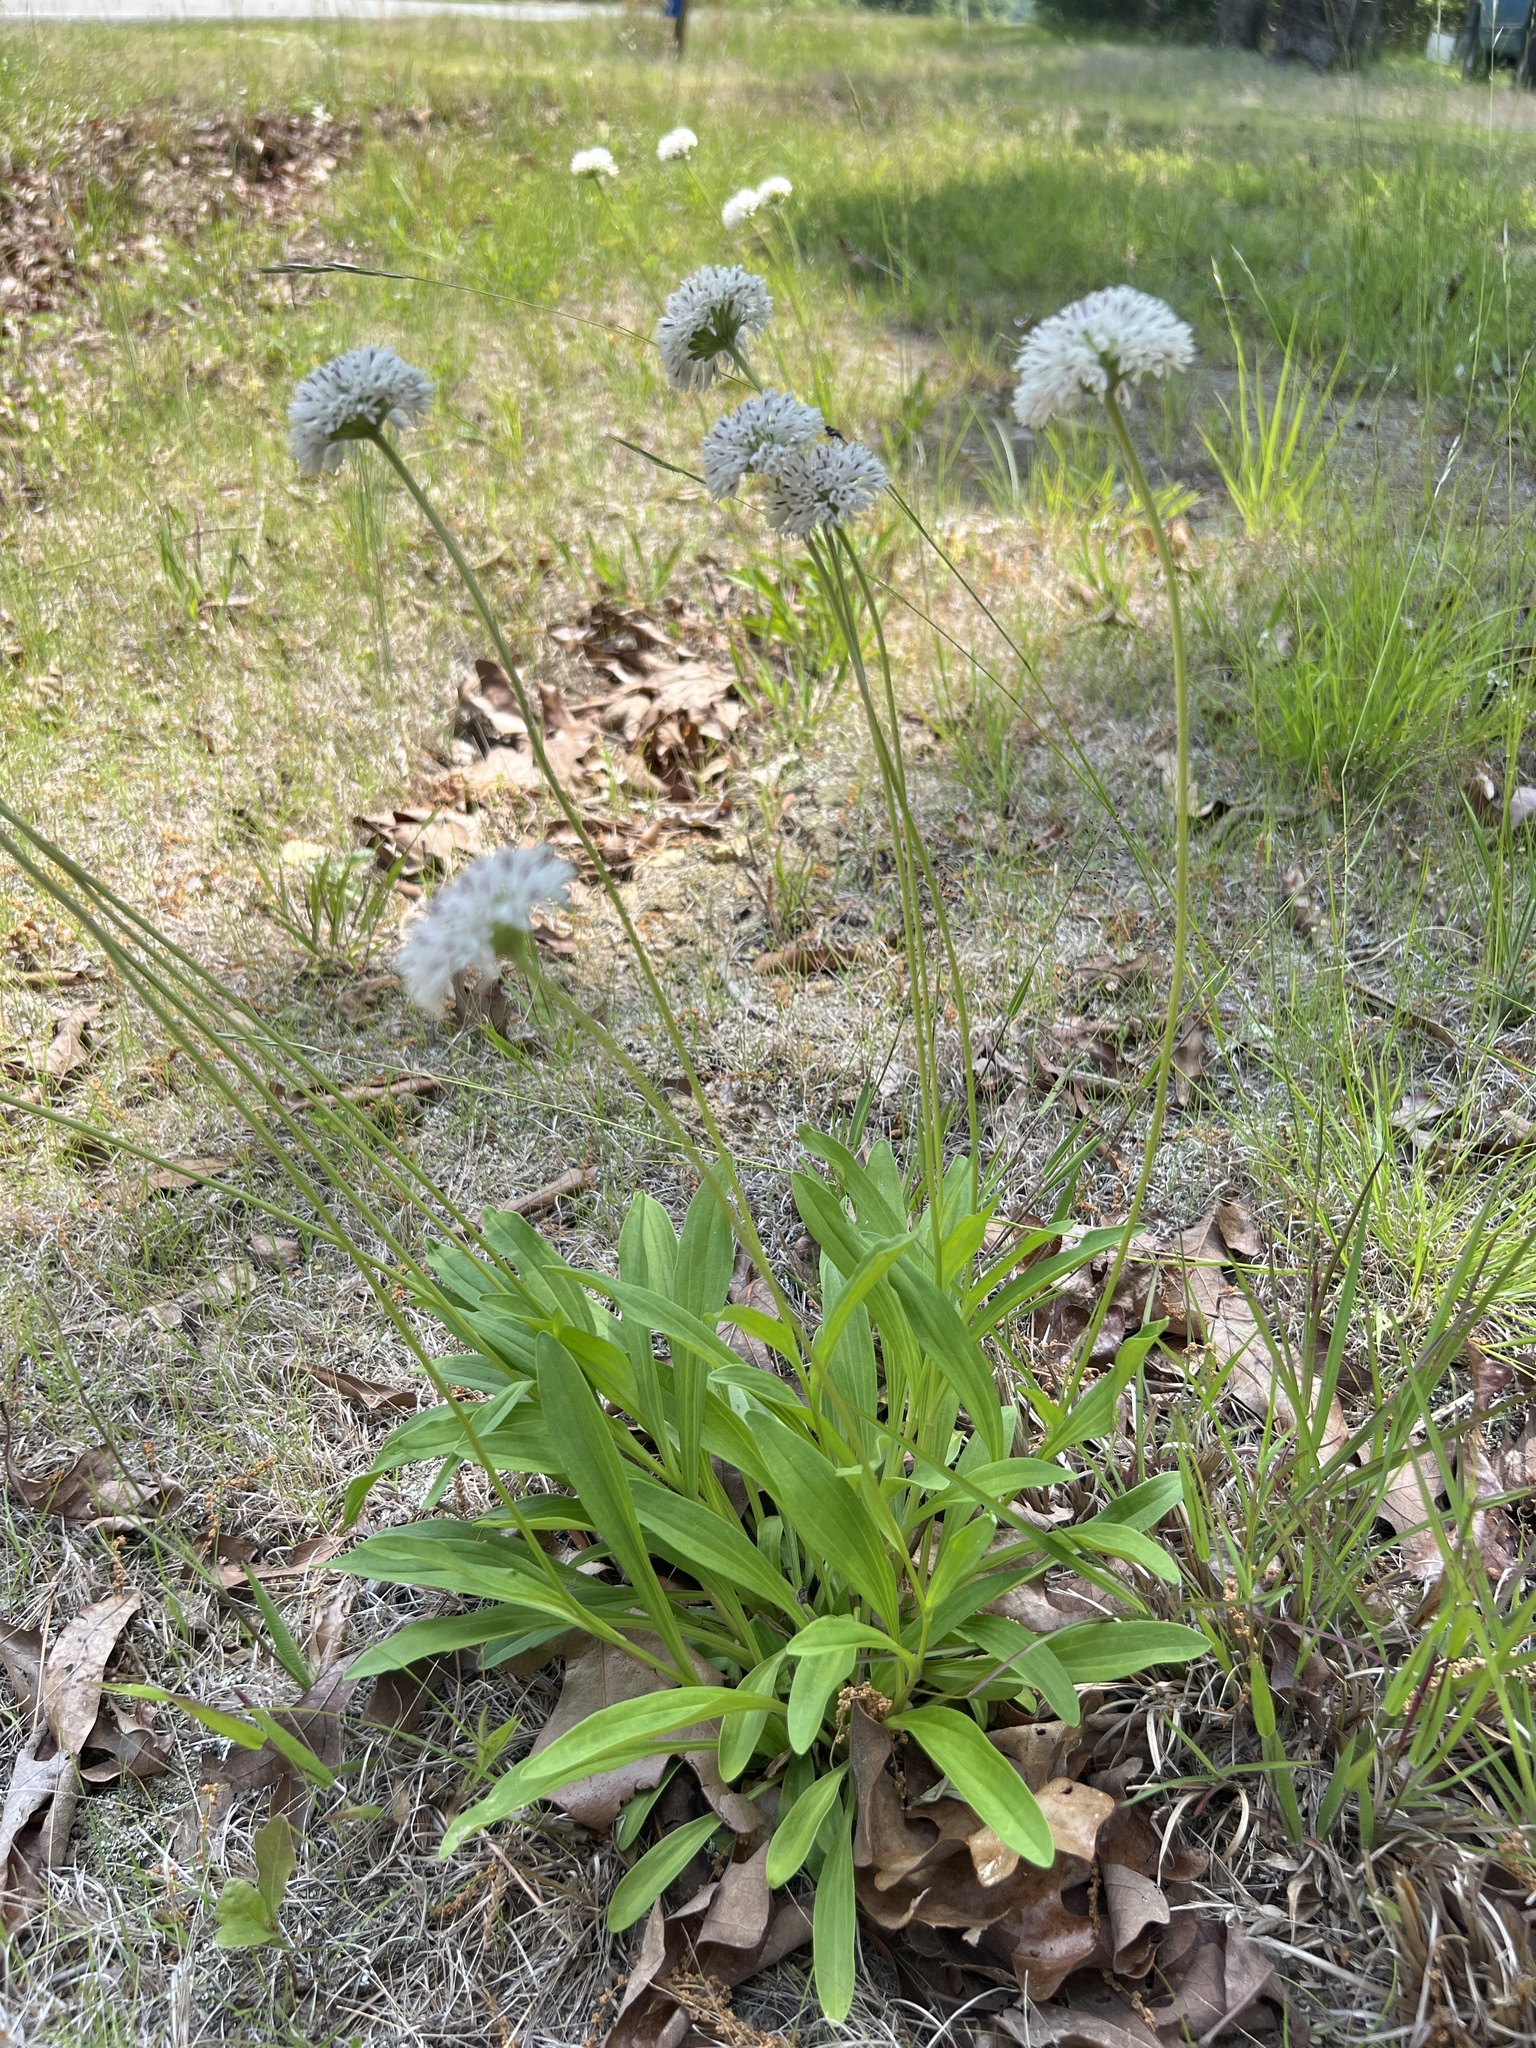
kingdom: Plantae
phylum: Tracheophyta
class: Magnoliopsida
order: Asterales
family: Asteraceae
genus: Marshallia
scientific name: Marshallia obovata
